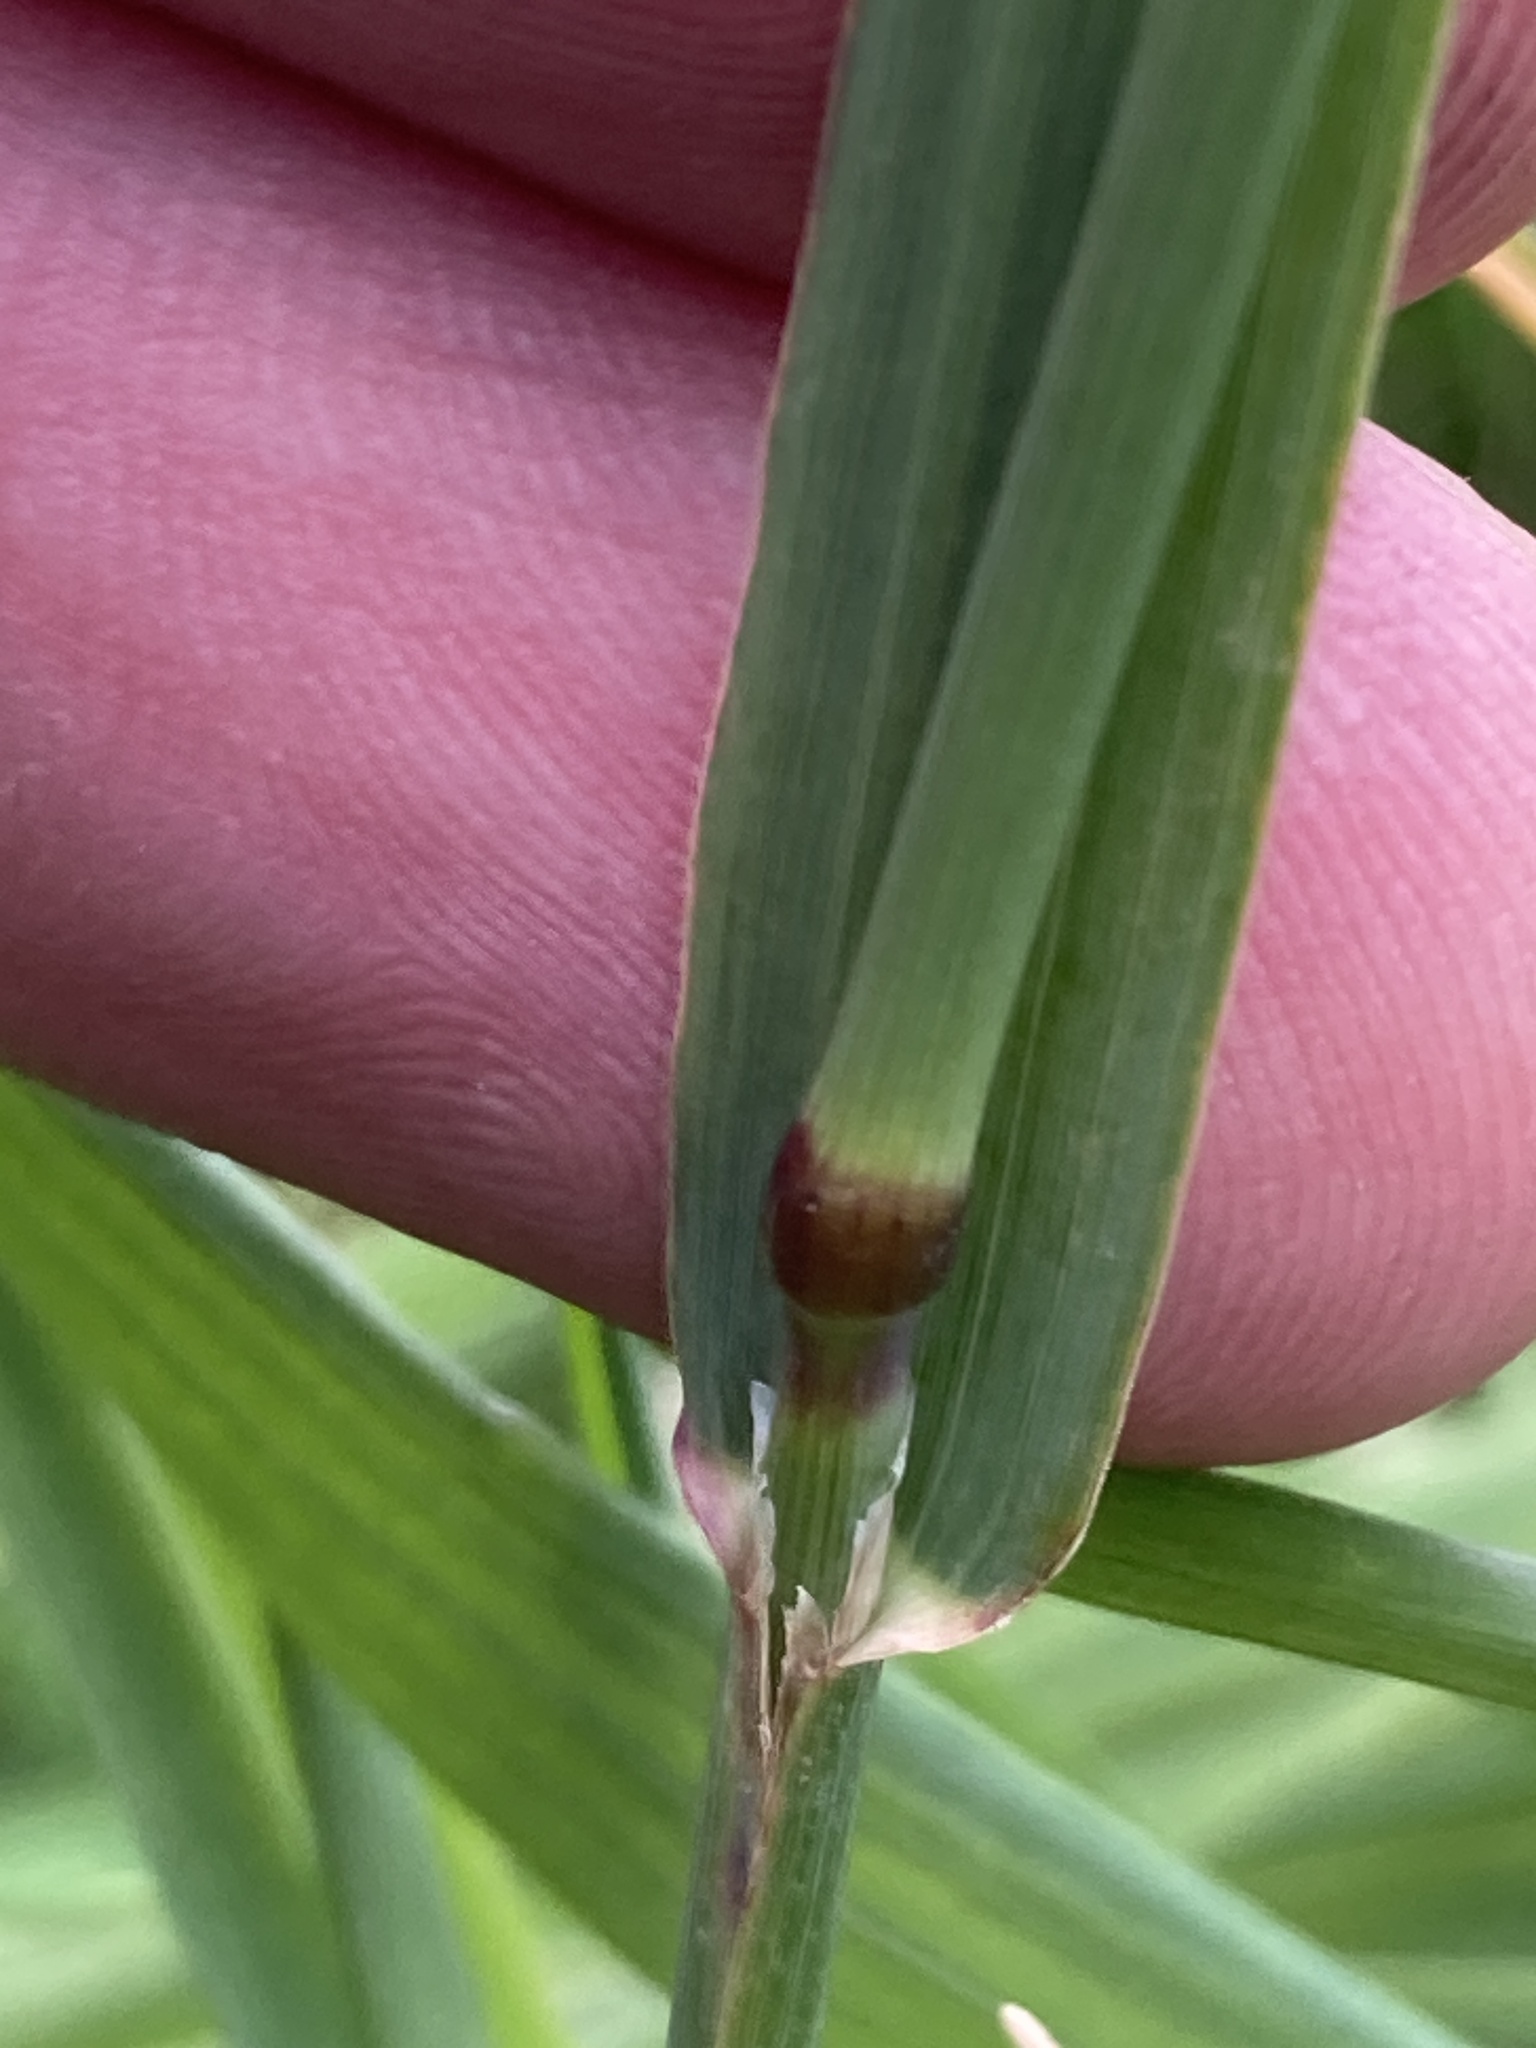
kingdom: Plantae
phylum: Tracheophyta
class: Liliopsida
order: Poales
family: Poaceae
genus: Phleum
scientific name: Phleum pratense
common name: Timothy grass
